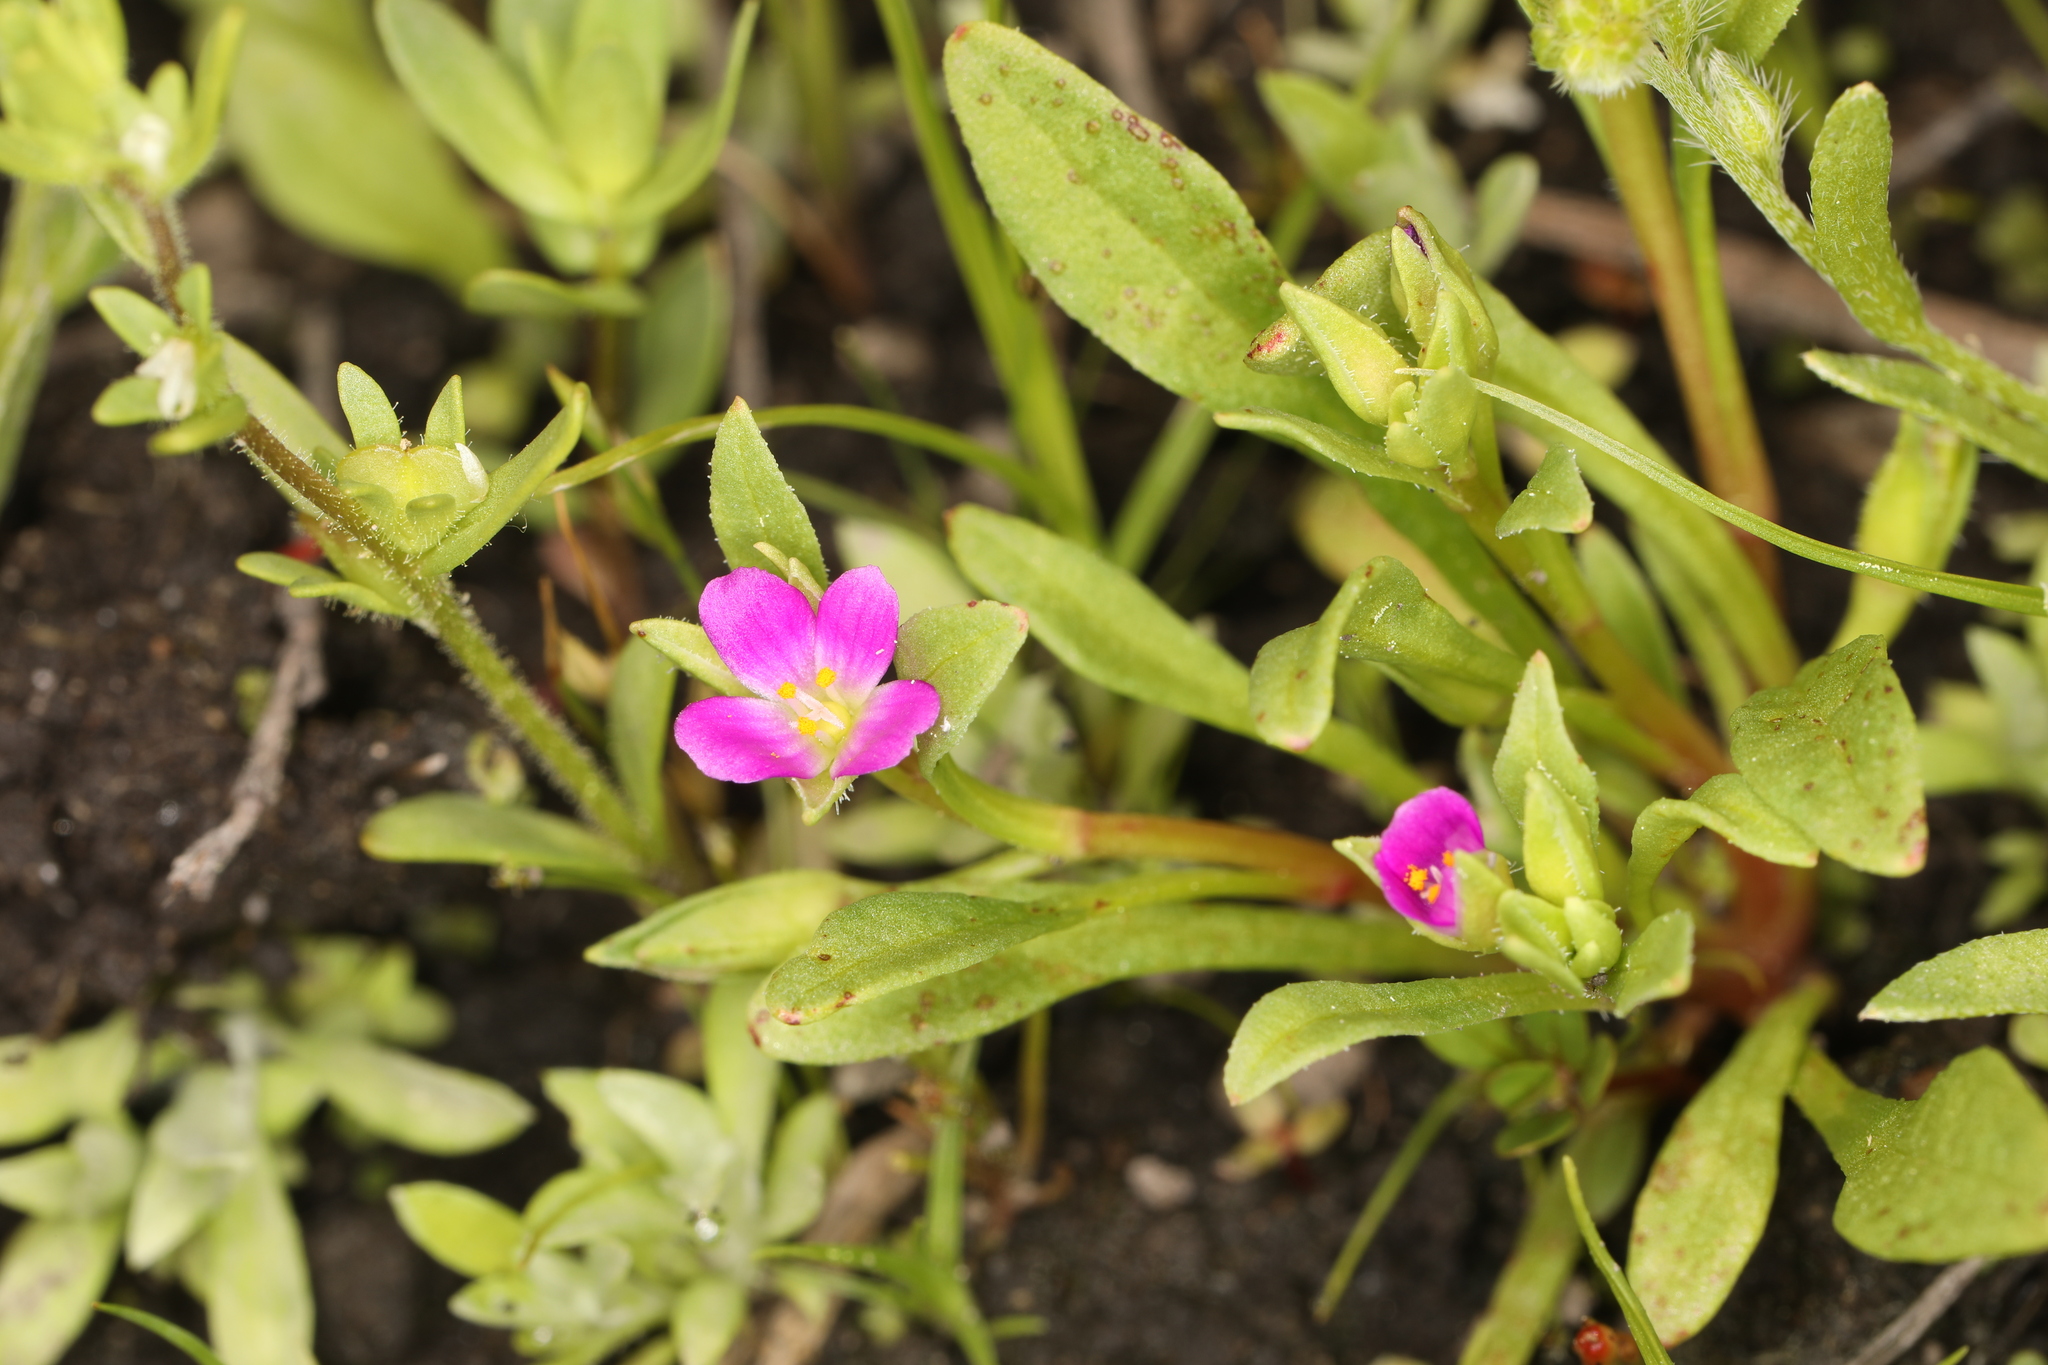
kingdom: Plantae
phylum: Tracheophyta
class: Magnoliopsida
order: Caryophyllales
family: Montiaceae
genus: Calandrinia
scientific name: Calandrinia menziesii
